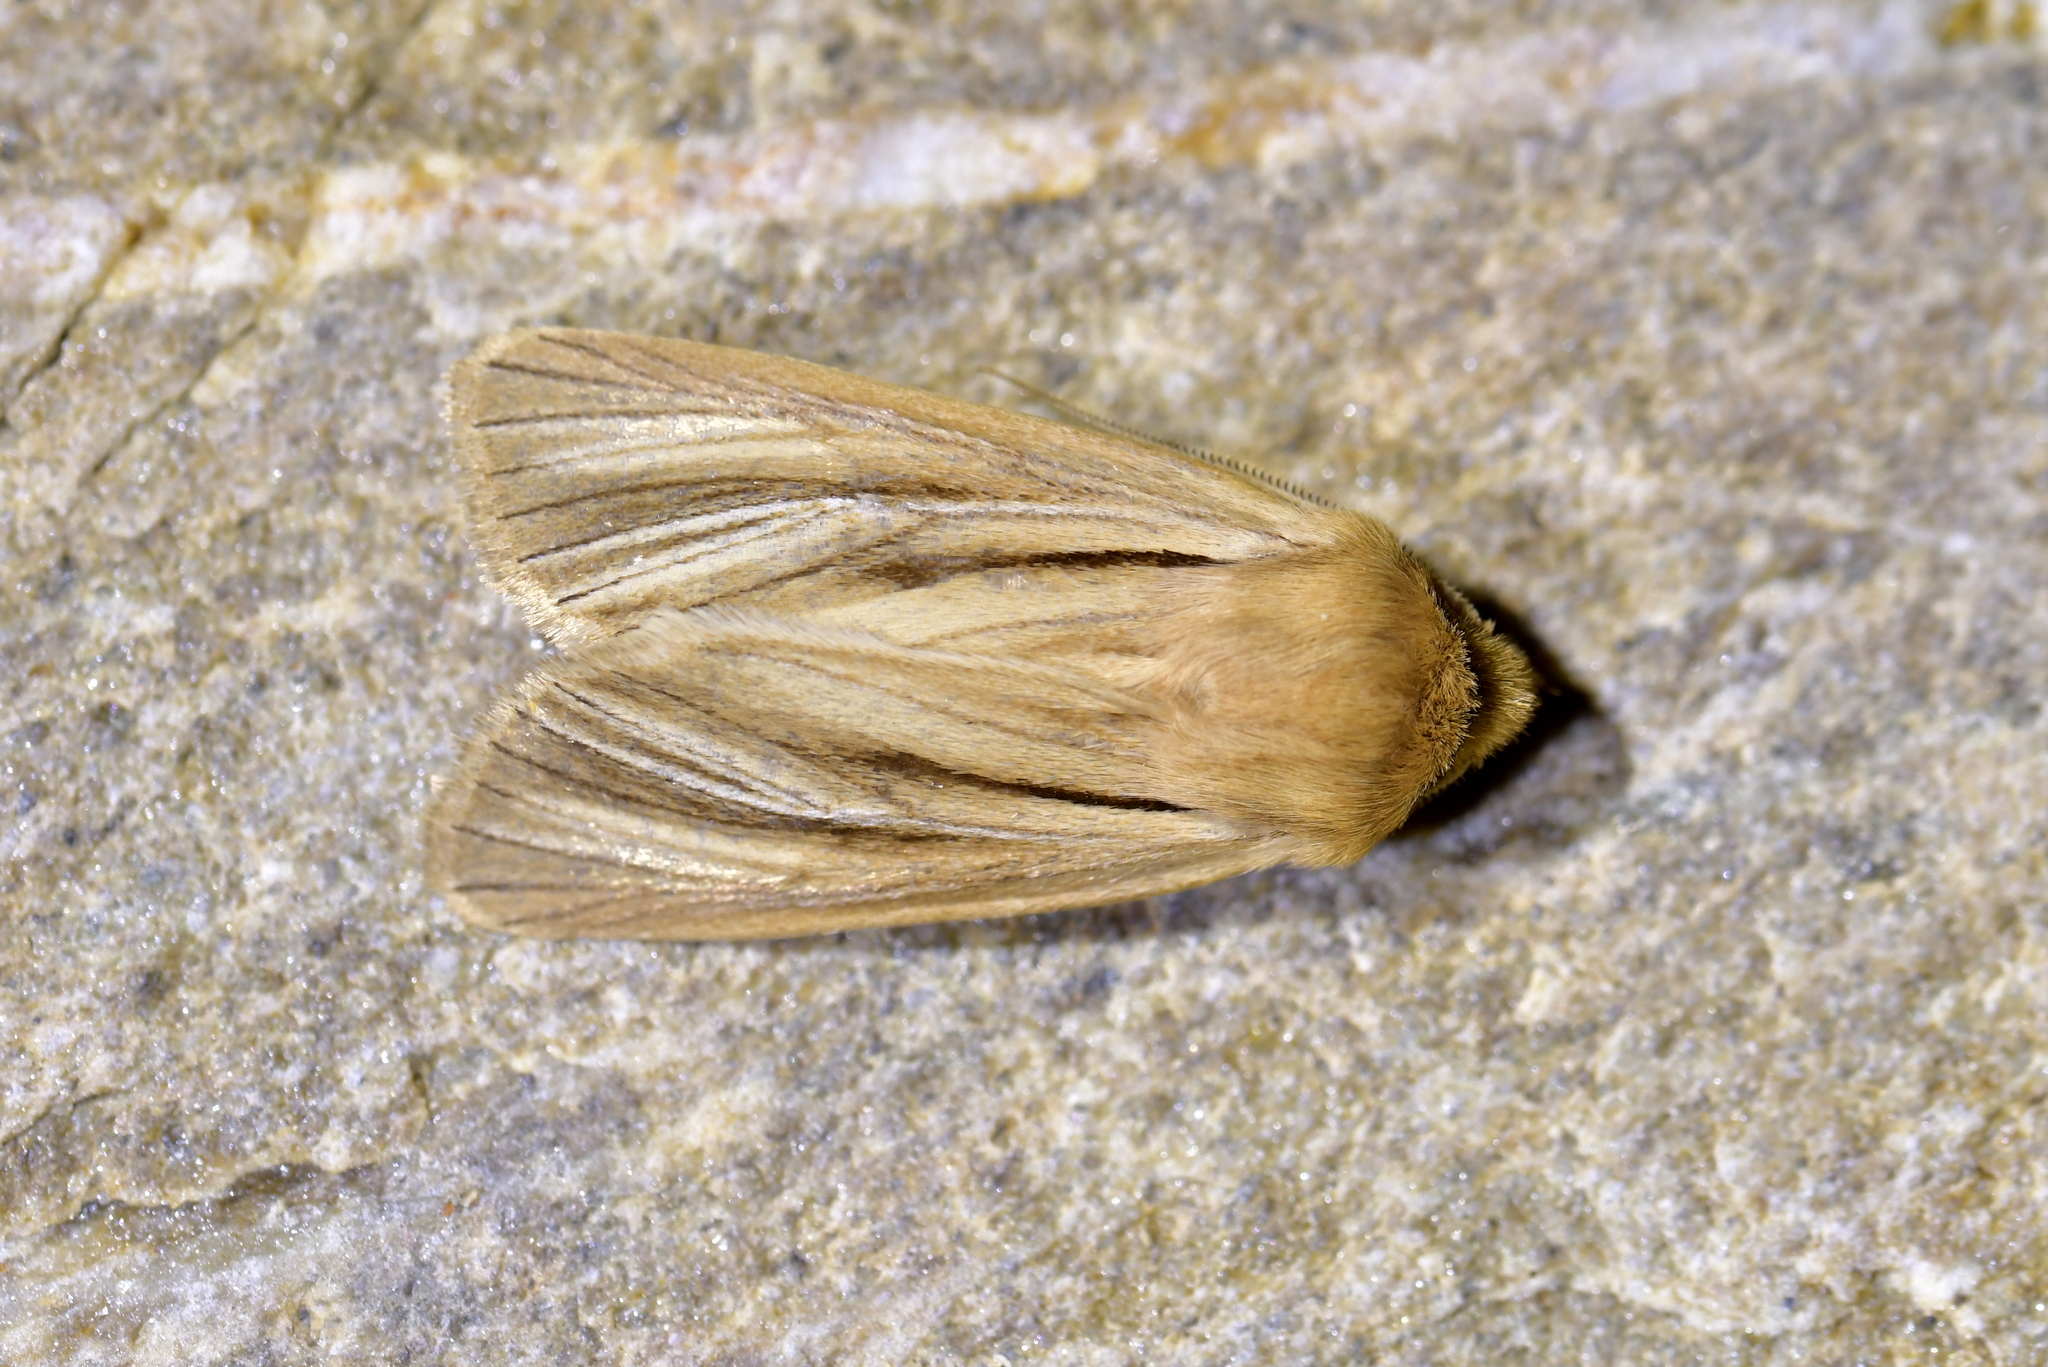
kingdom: Animalia
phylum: Arthropoda
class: Insecta
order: Lepidoptera
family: Noctuidae
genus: Ichneutica
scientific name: Ichneutica
